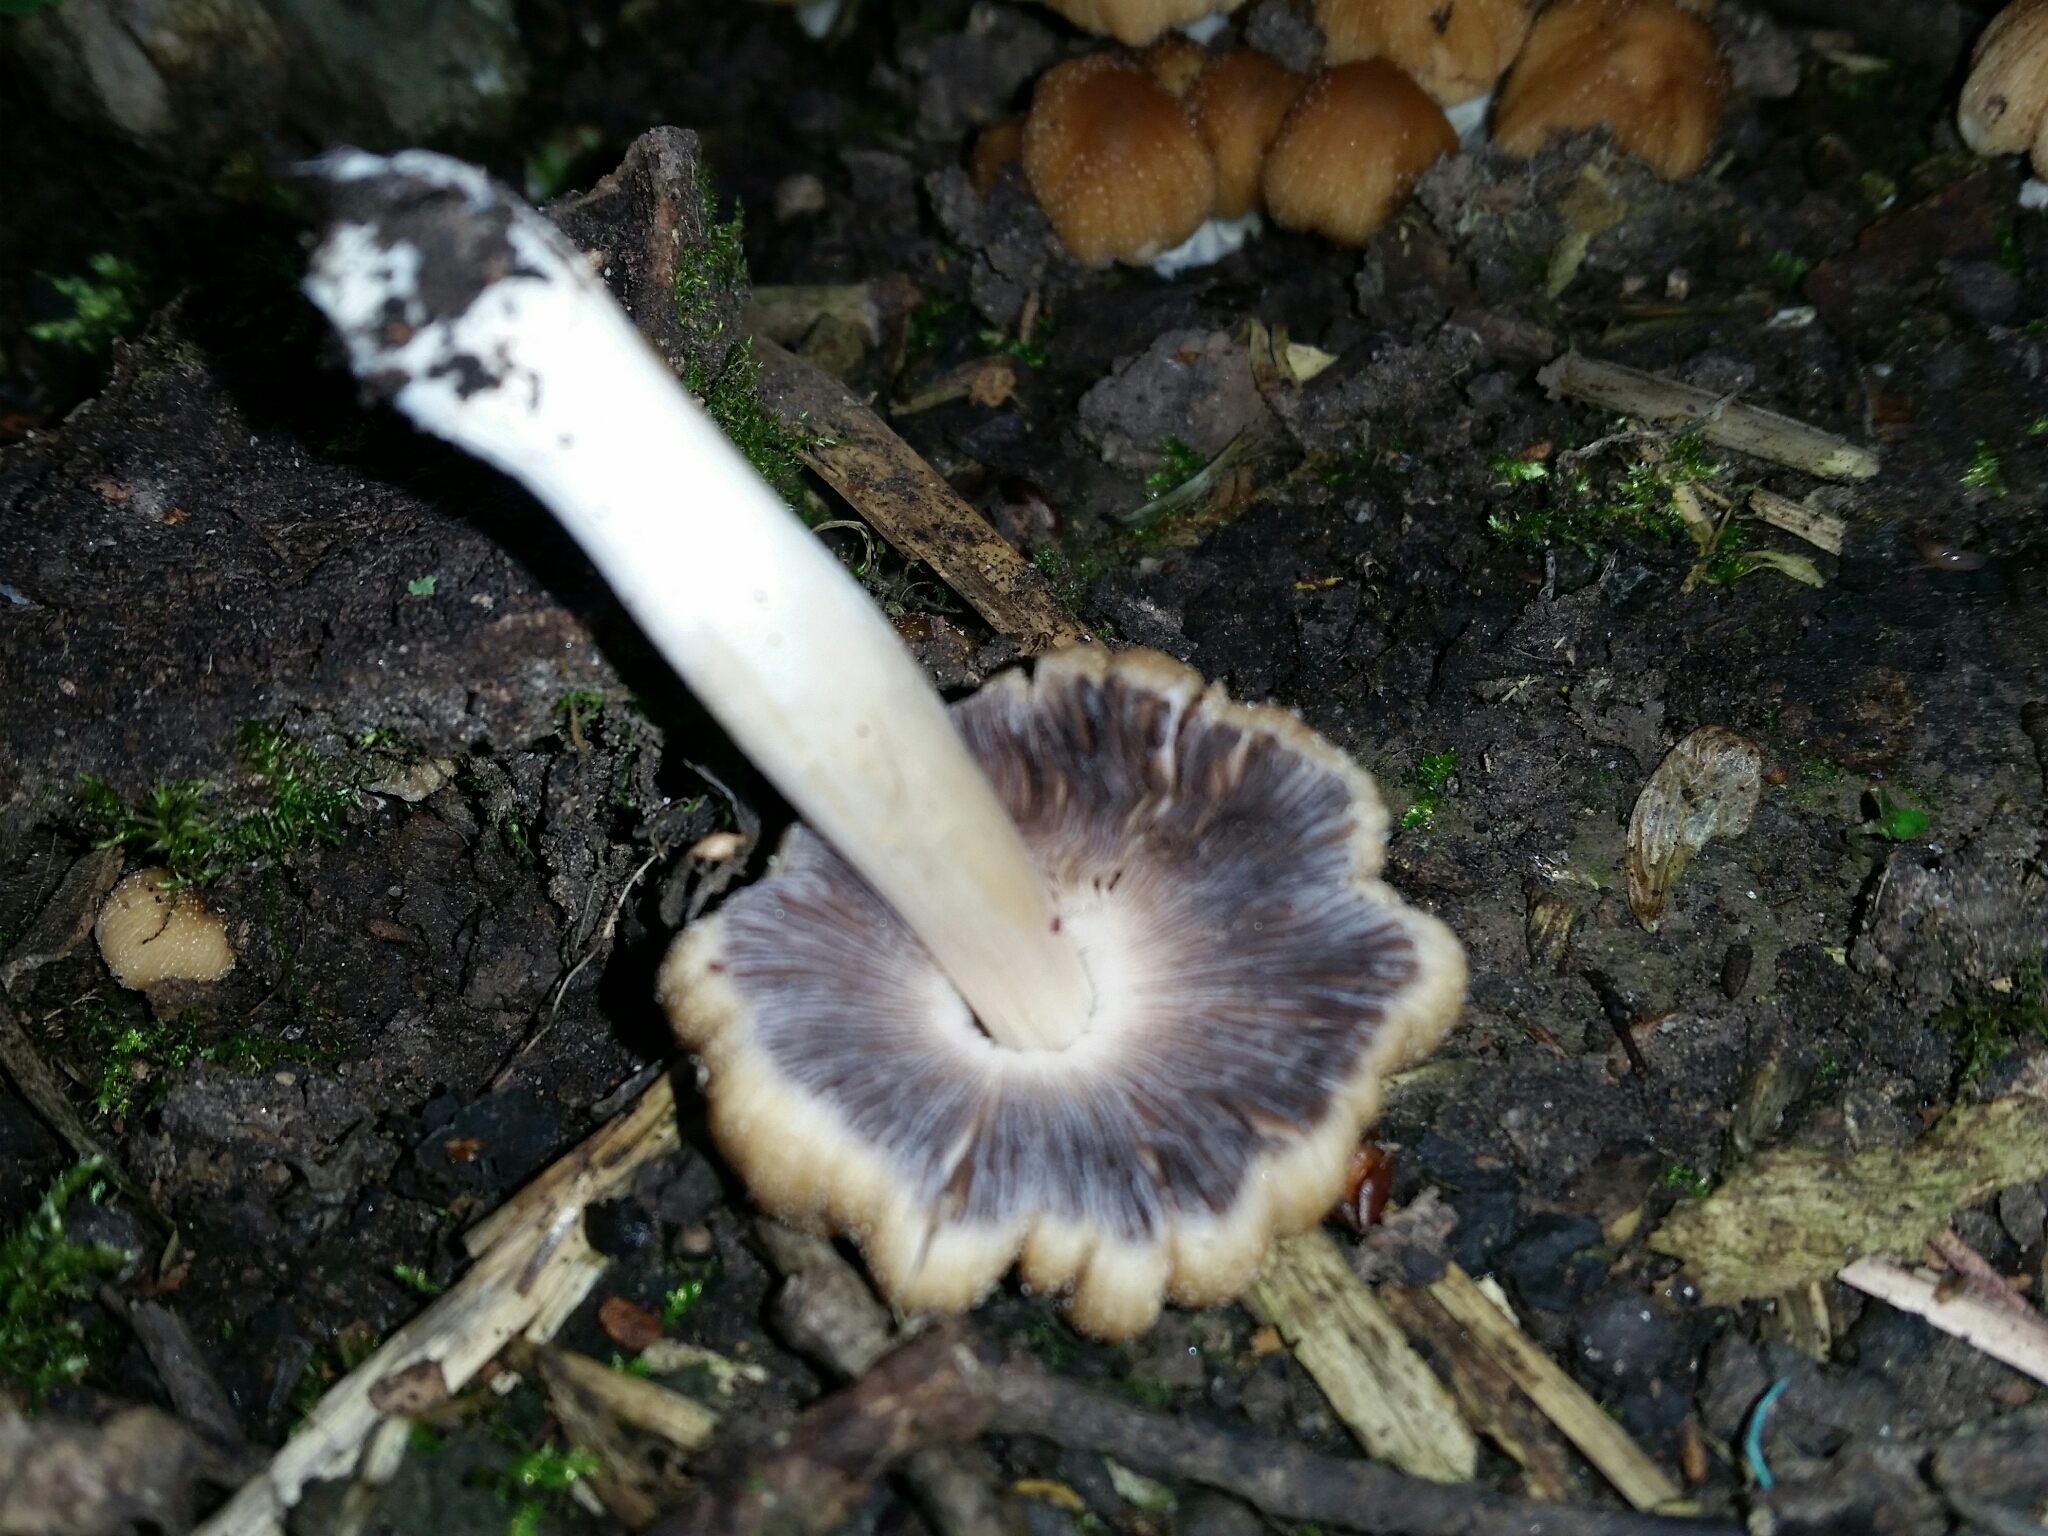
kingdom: Fungi
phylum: Basidiomycota
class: Agaricomycetes
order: Agaricales
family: Psathyrellaceae
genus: Coprinellus
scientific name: Coprinellus micaceus
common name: Glistening ink-cap
